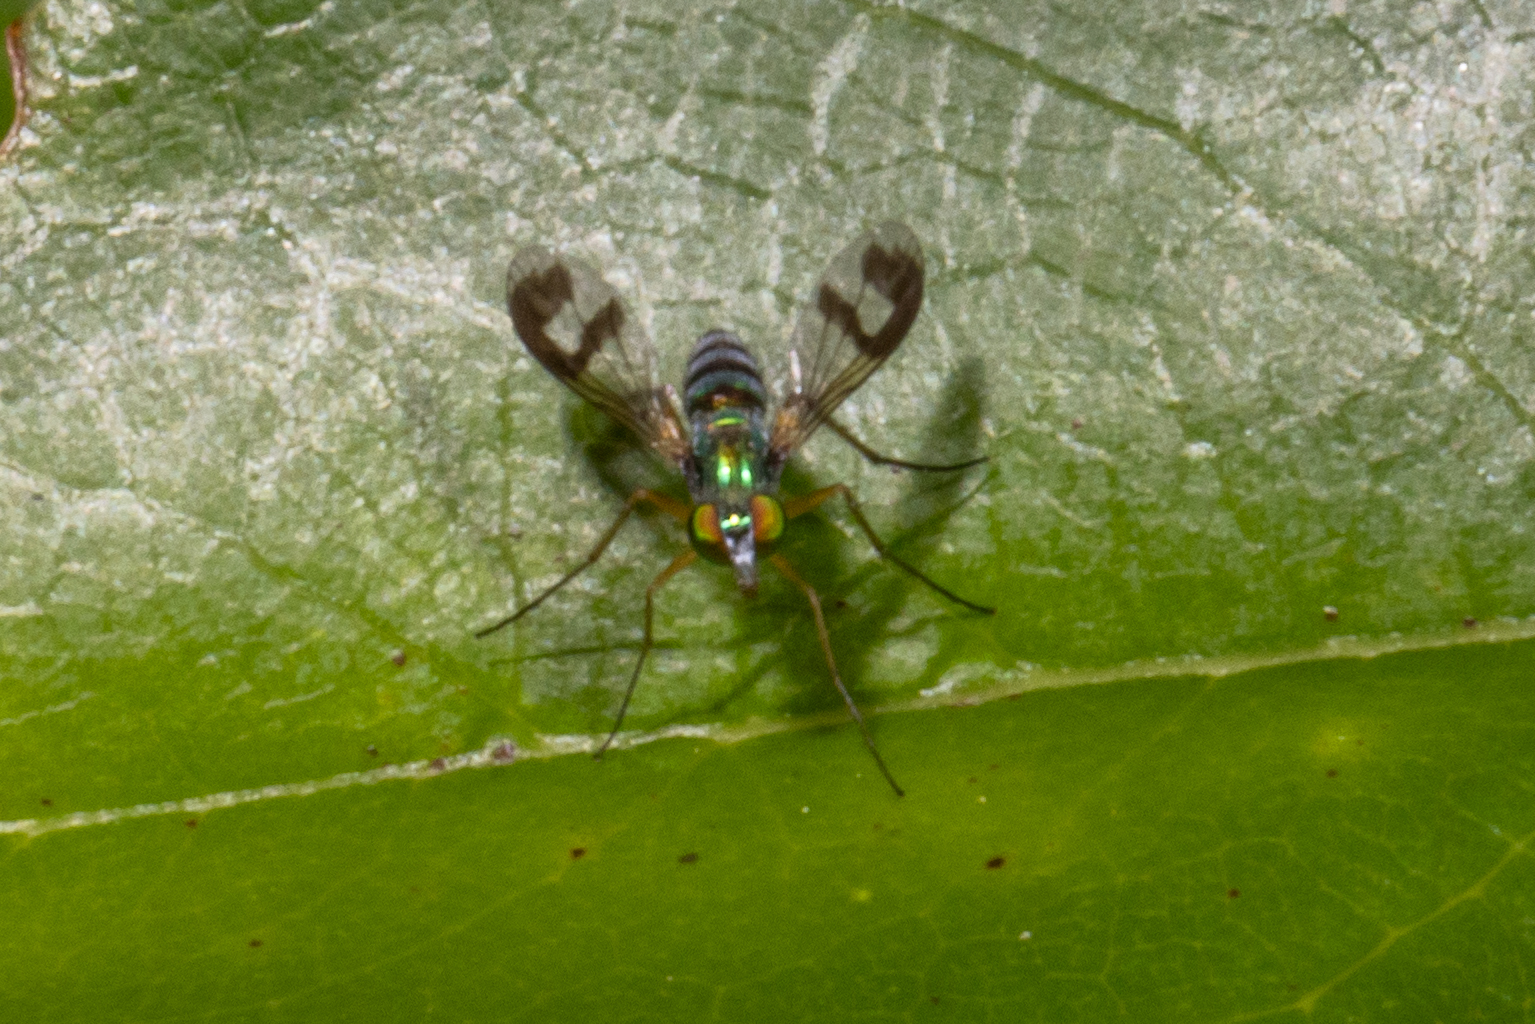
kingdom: Animalia
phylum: Arthropoda
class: Insecta
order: Diptera
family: Dolichopodidae
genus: Austrosciapus
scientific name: Austrosciapus proximus
